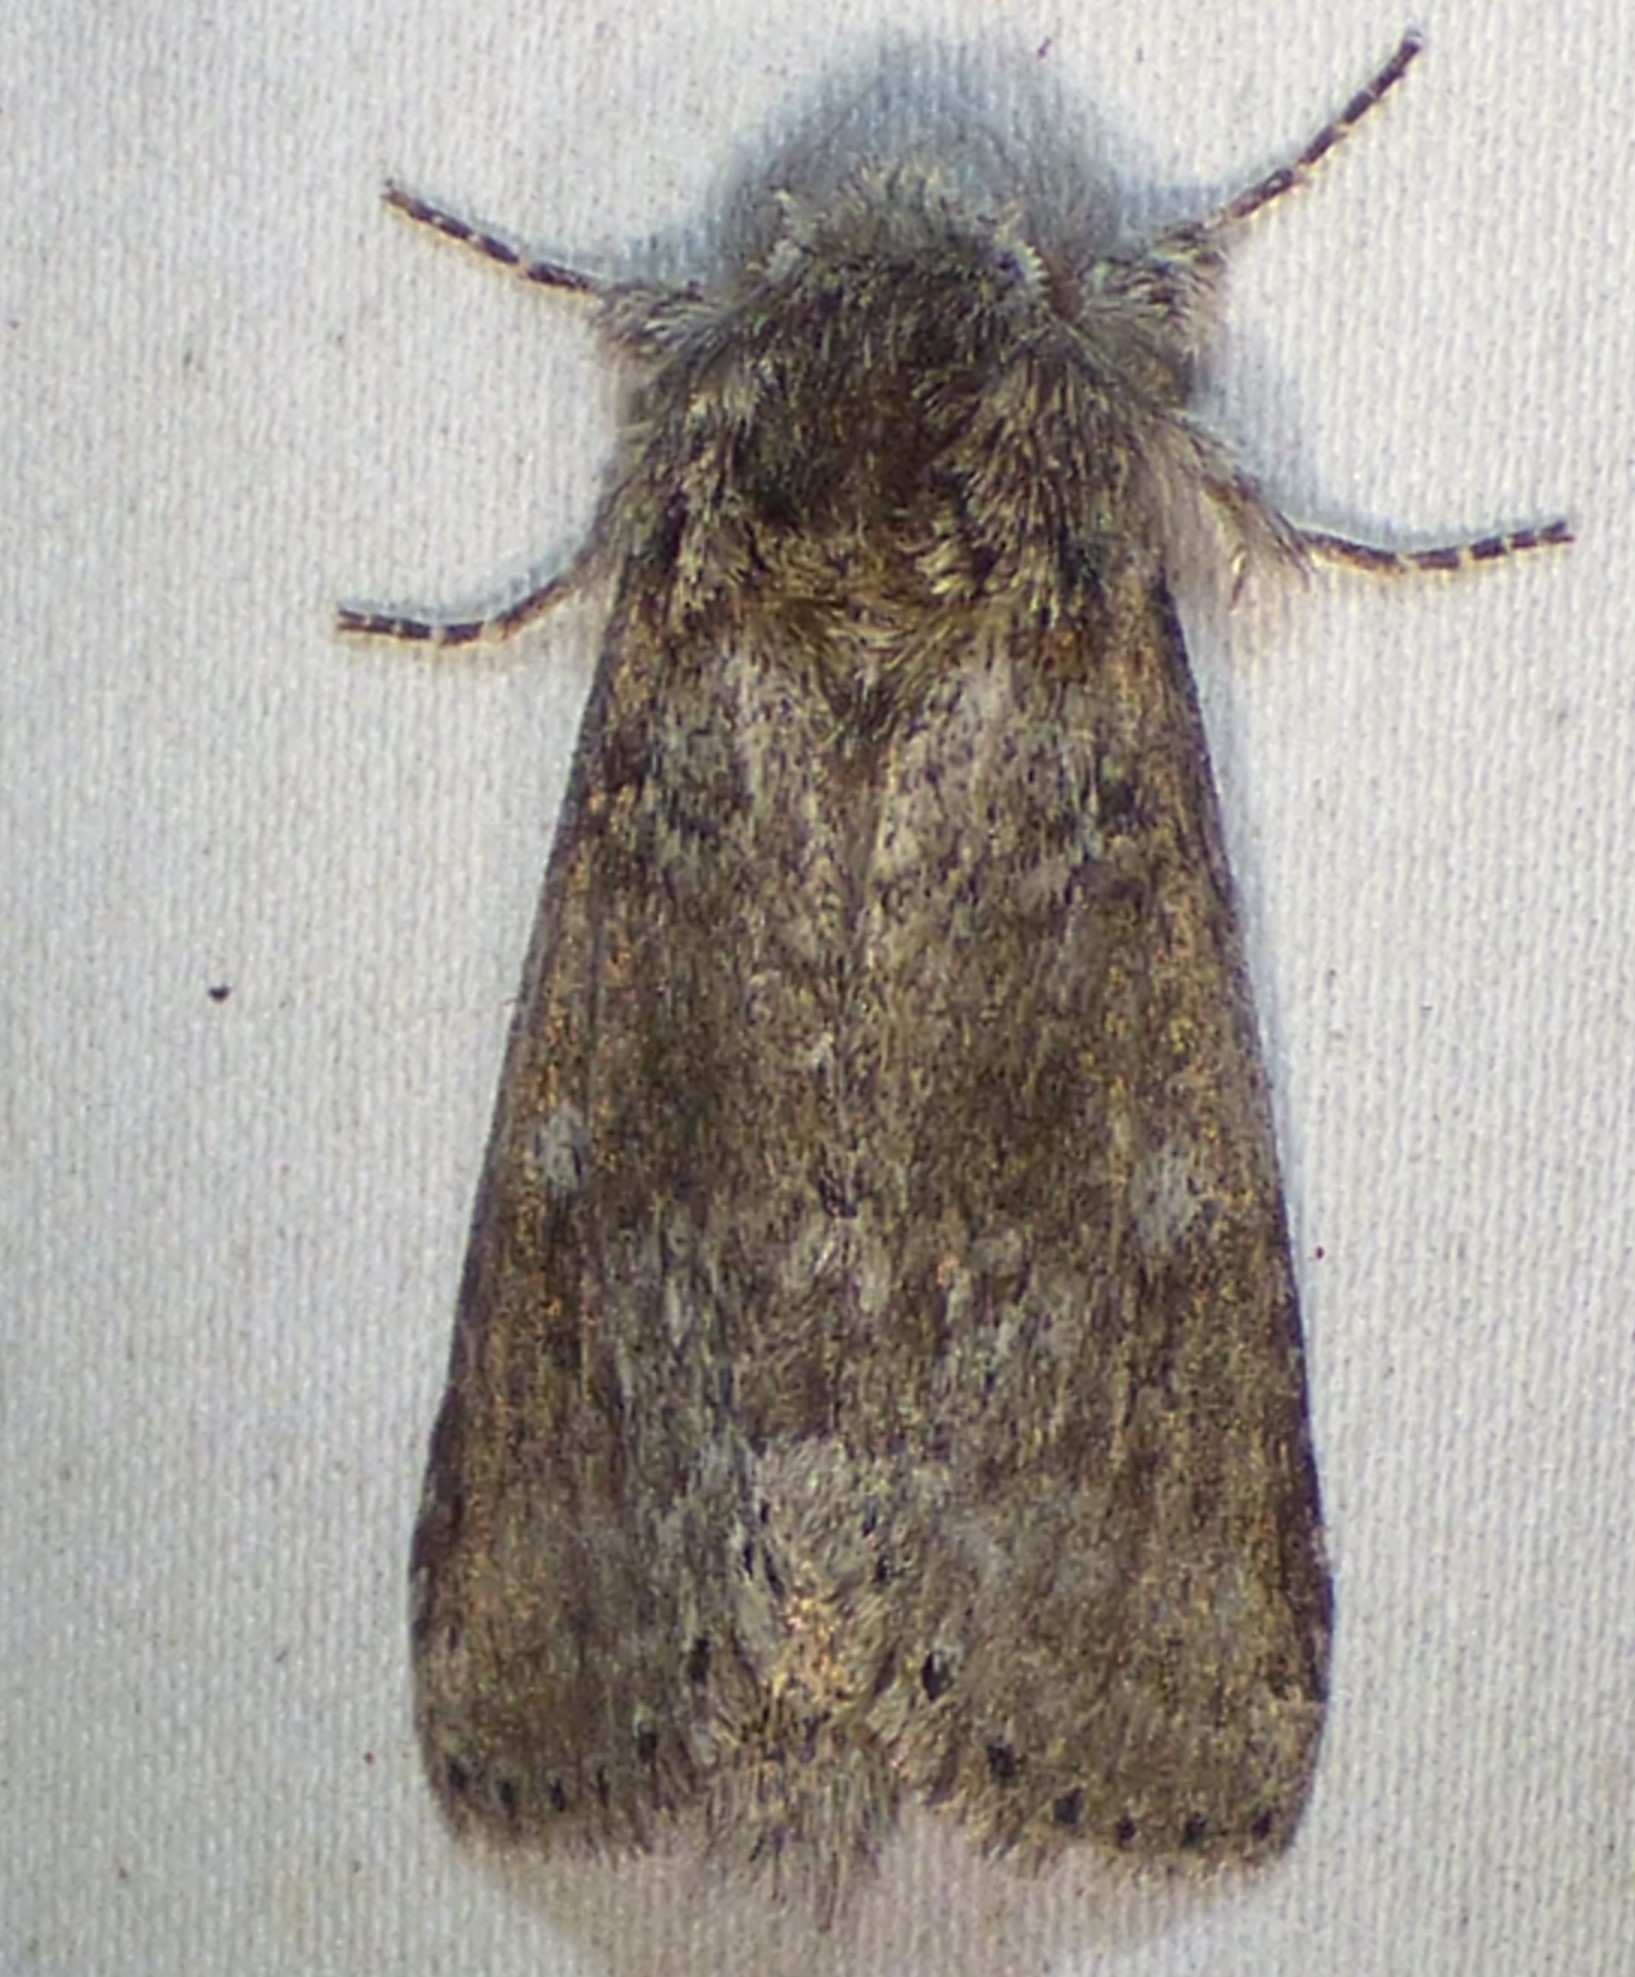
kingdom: Animalia
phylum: Arthropoda
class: Insecta
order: Lepidoptera
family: Notodontidae
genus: Lochmaeus
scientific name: Lochmaeus bilineata
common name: Double-lined prominent
